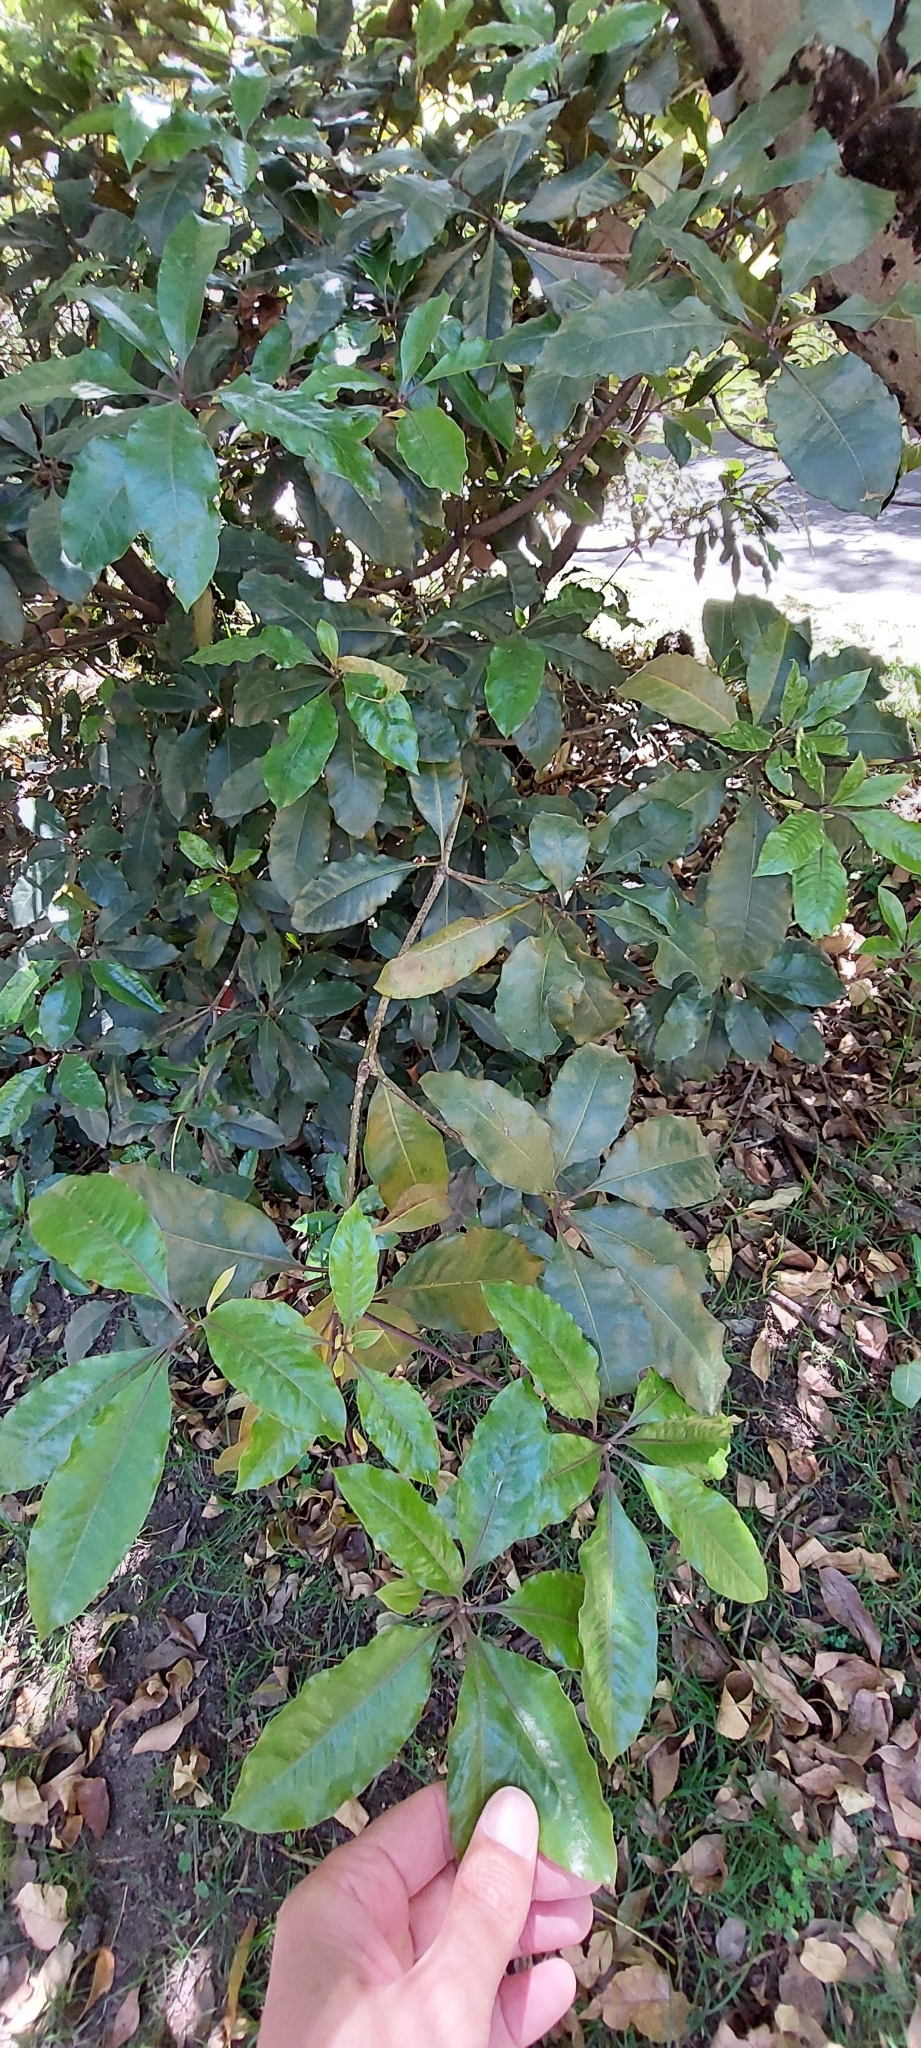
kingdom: Plantae
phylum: Tracheophyta
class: Magnoliopsida
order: Apiales
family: Pittosporaceae
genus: Pittosporum
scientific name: Pittosporum undulatum
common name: Australian cheesewood
